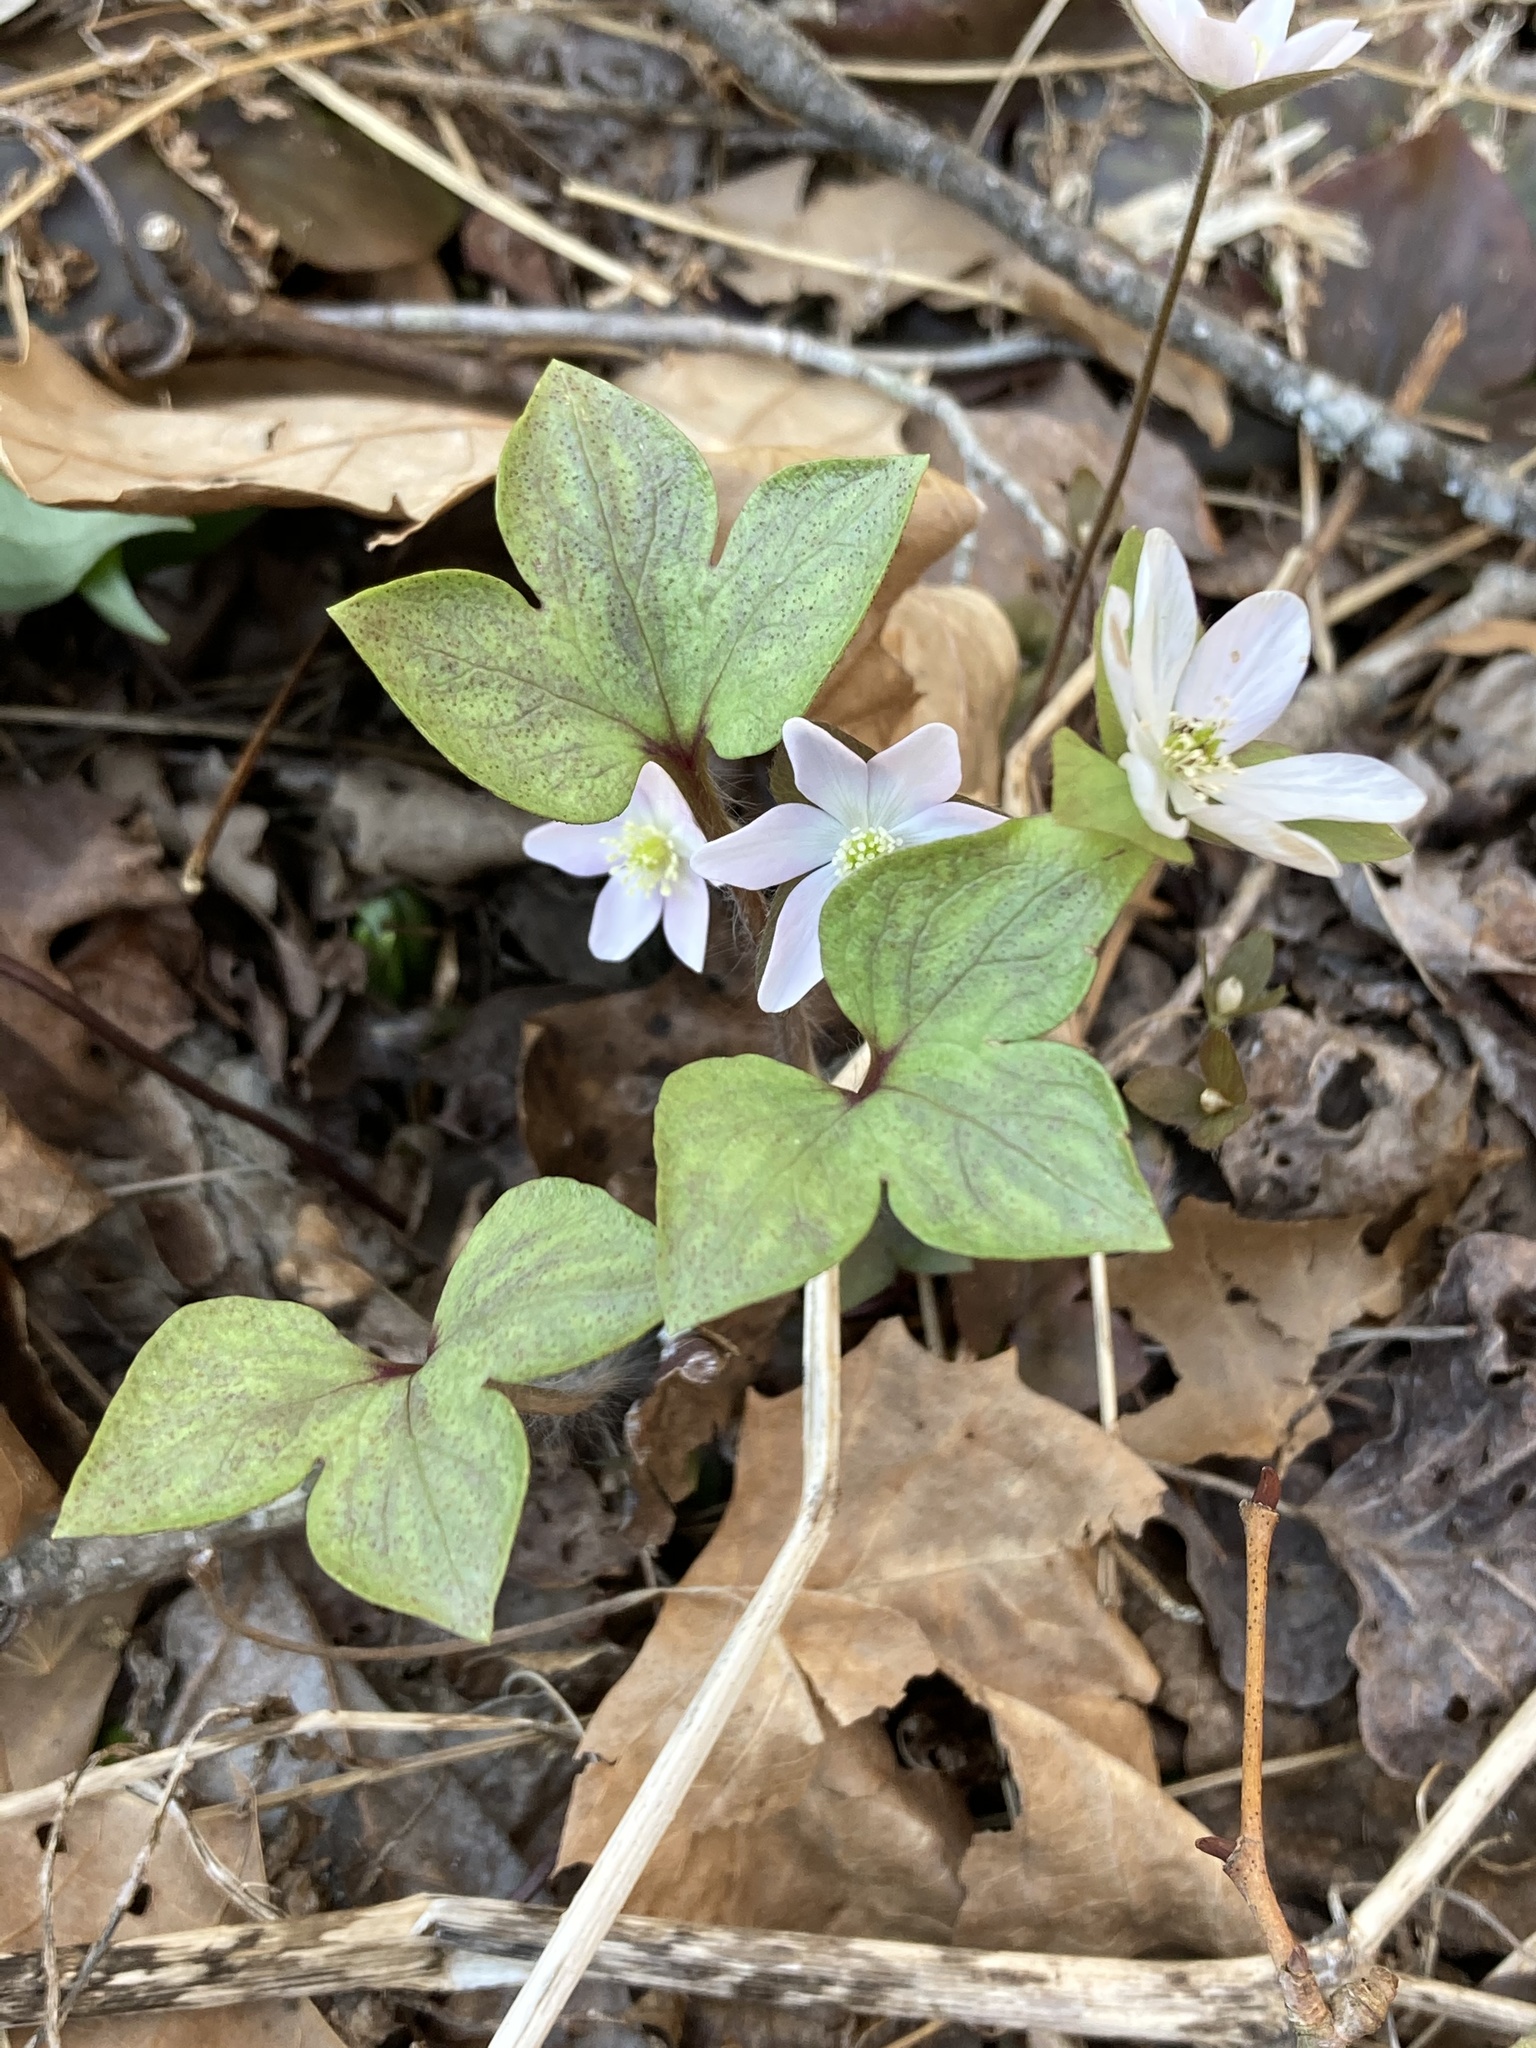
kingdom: Plantae
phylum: Tracheophyta
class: Magnoliopsida
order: Ranunculales
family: Ranunculaceae
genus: Hepatica
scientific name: Hepatica acutiloba
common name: Sharp-lobed hepatica
